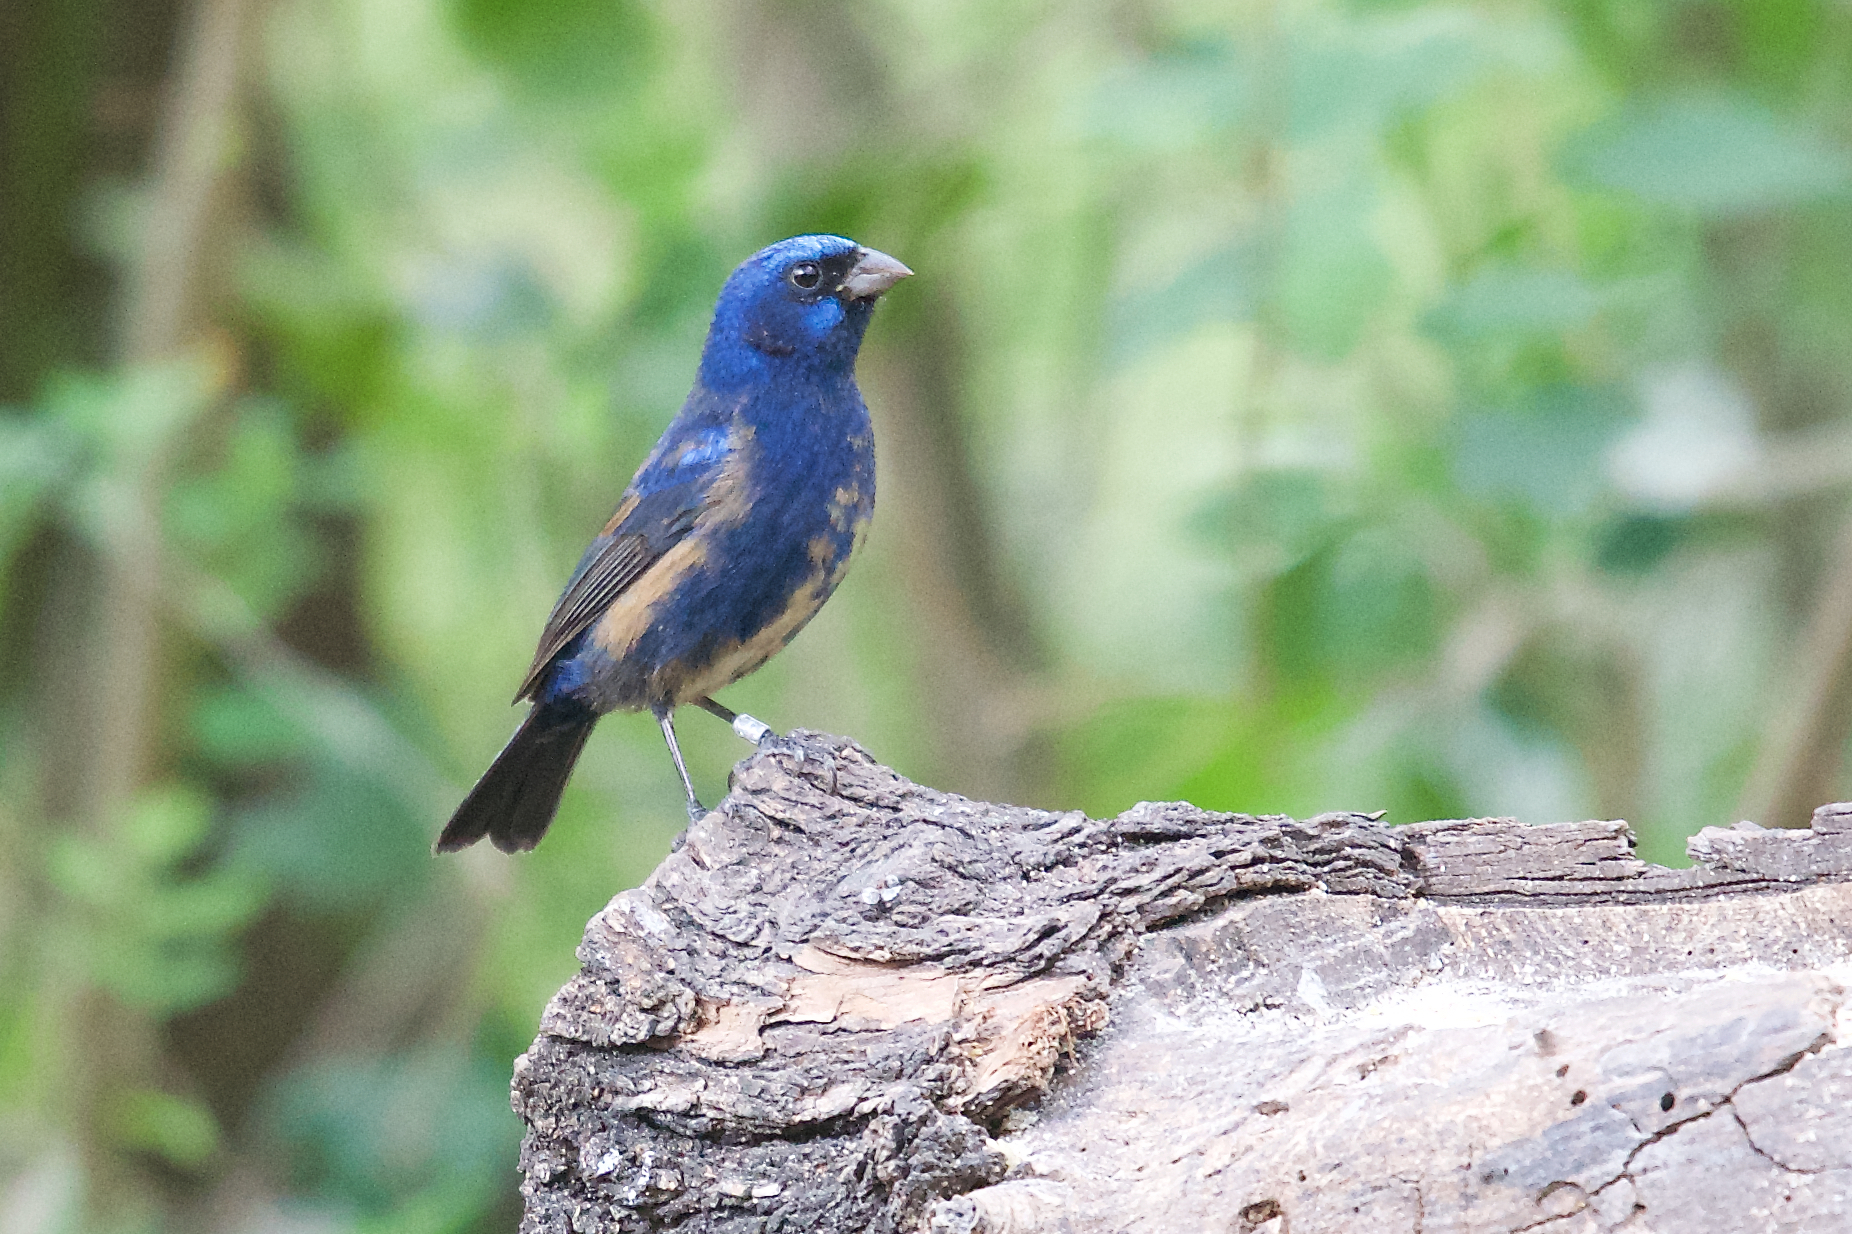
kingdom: Animalia
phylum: Chordata
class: Aves
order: Passeriformes
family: Cardinalidae
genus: Cyanocompsa
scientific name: Cyanocompsa parellina
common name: Blue bunting
